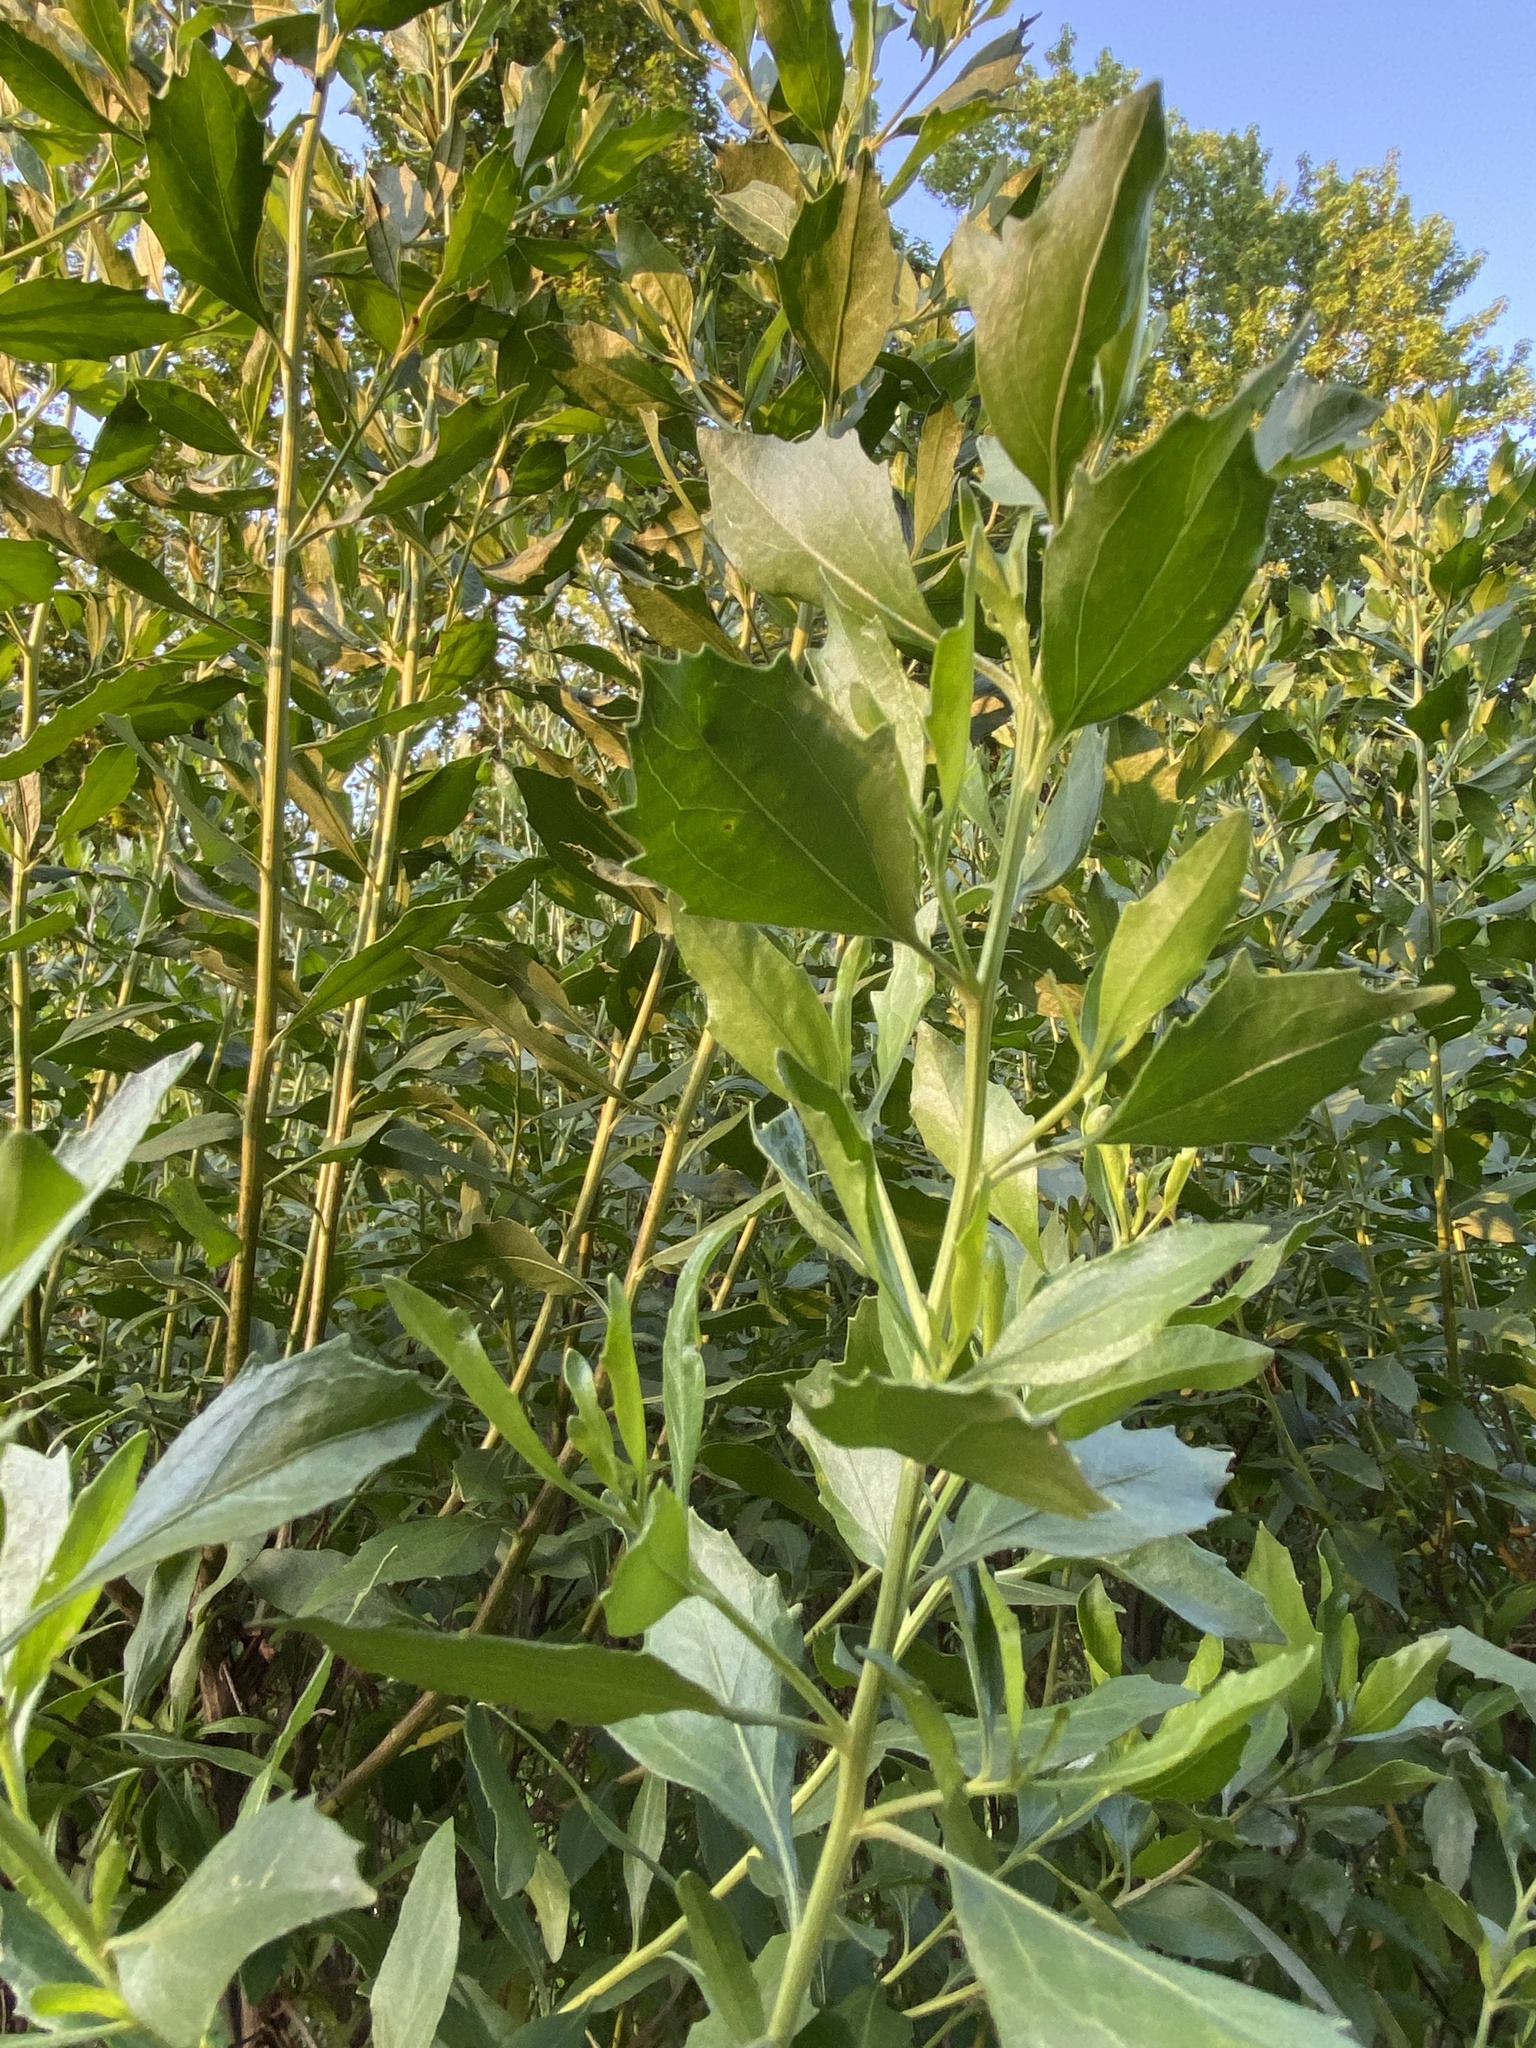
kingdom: Plantae
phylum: Tracheophyta
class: Magnoliopsida
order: Asterales
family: Asteraceae
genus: Baccharis
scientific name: Baccharis halimifolia
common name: Eastern baccharis
